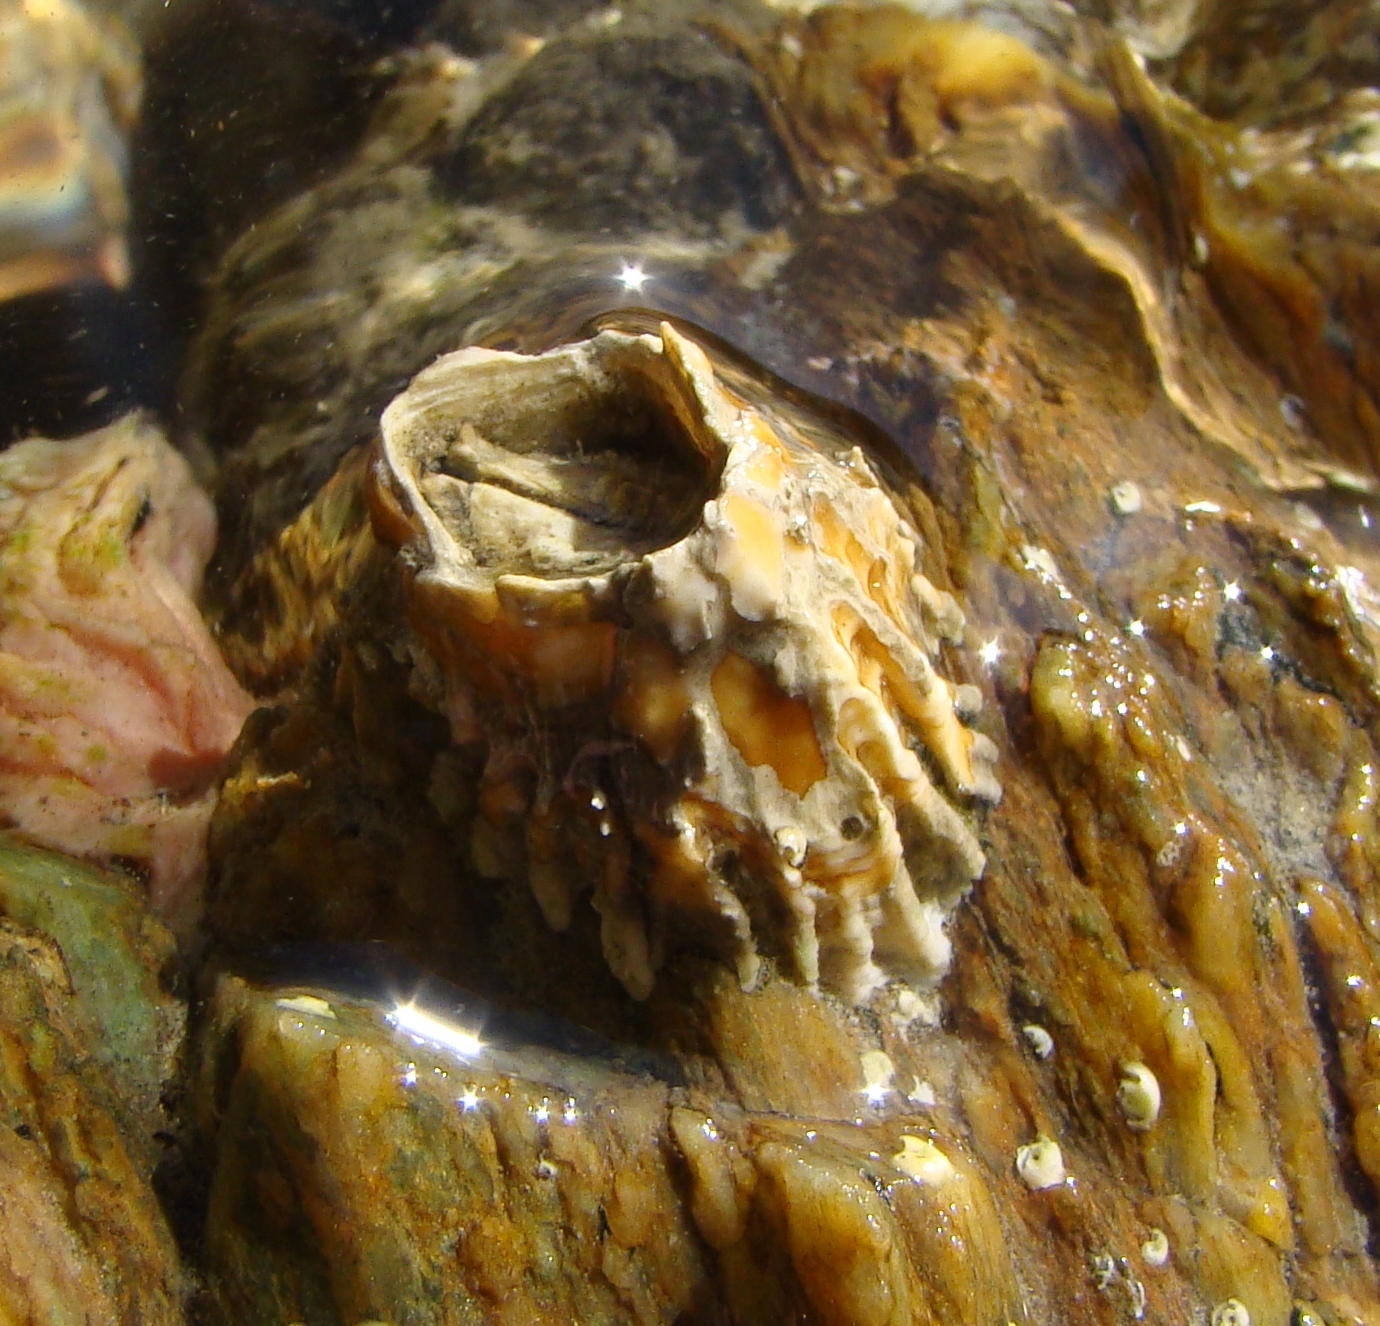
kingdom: Animalia
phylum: Arthropoda
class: Maxillopoda
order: Sessilia
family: Tetraclitidae
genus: Epopella
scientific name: Epopella plicata
